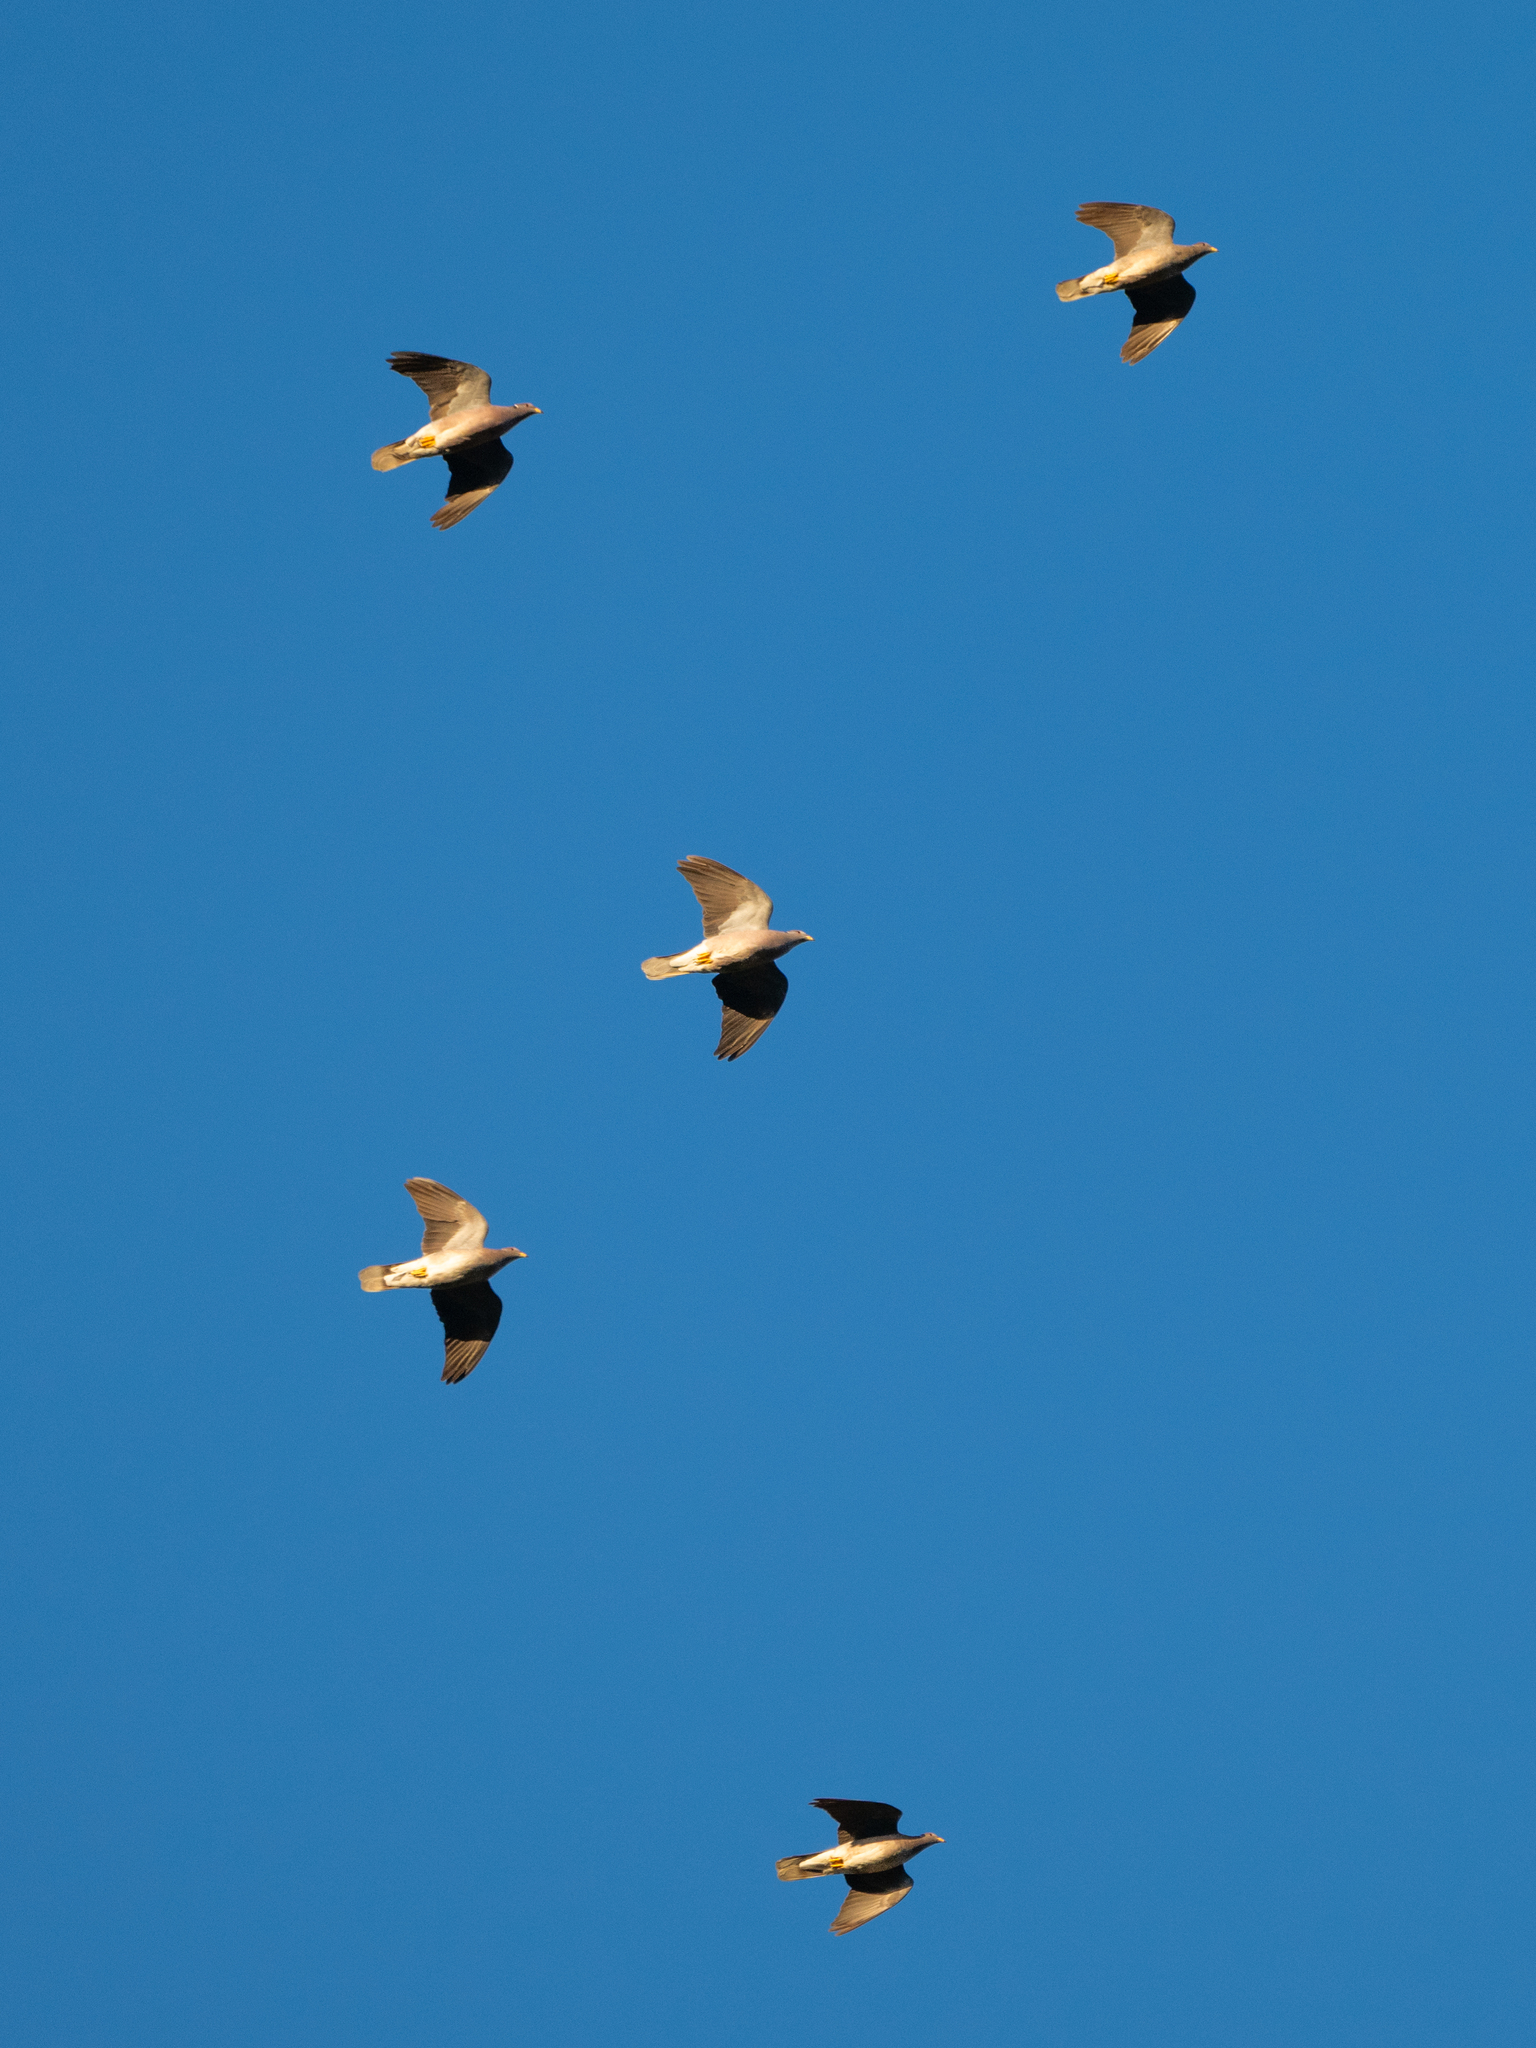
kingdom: Animalia
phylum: Chordata
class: Aves
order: Columbiformes
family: Columbidae
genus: Patagioenas
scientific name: Patagioenas fasciata
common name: Band-tailed pigeon
